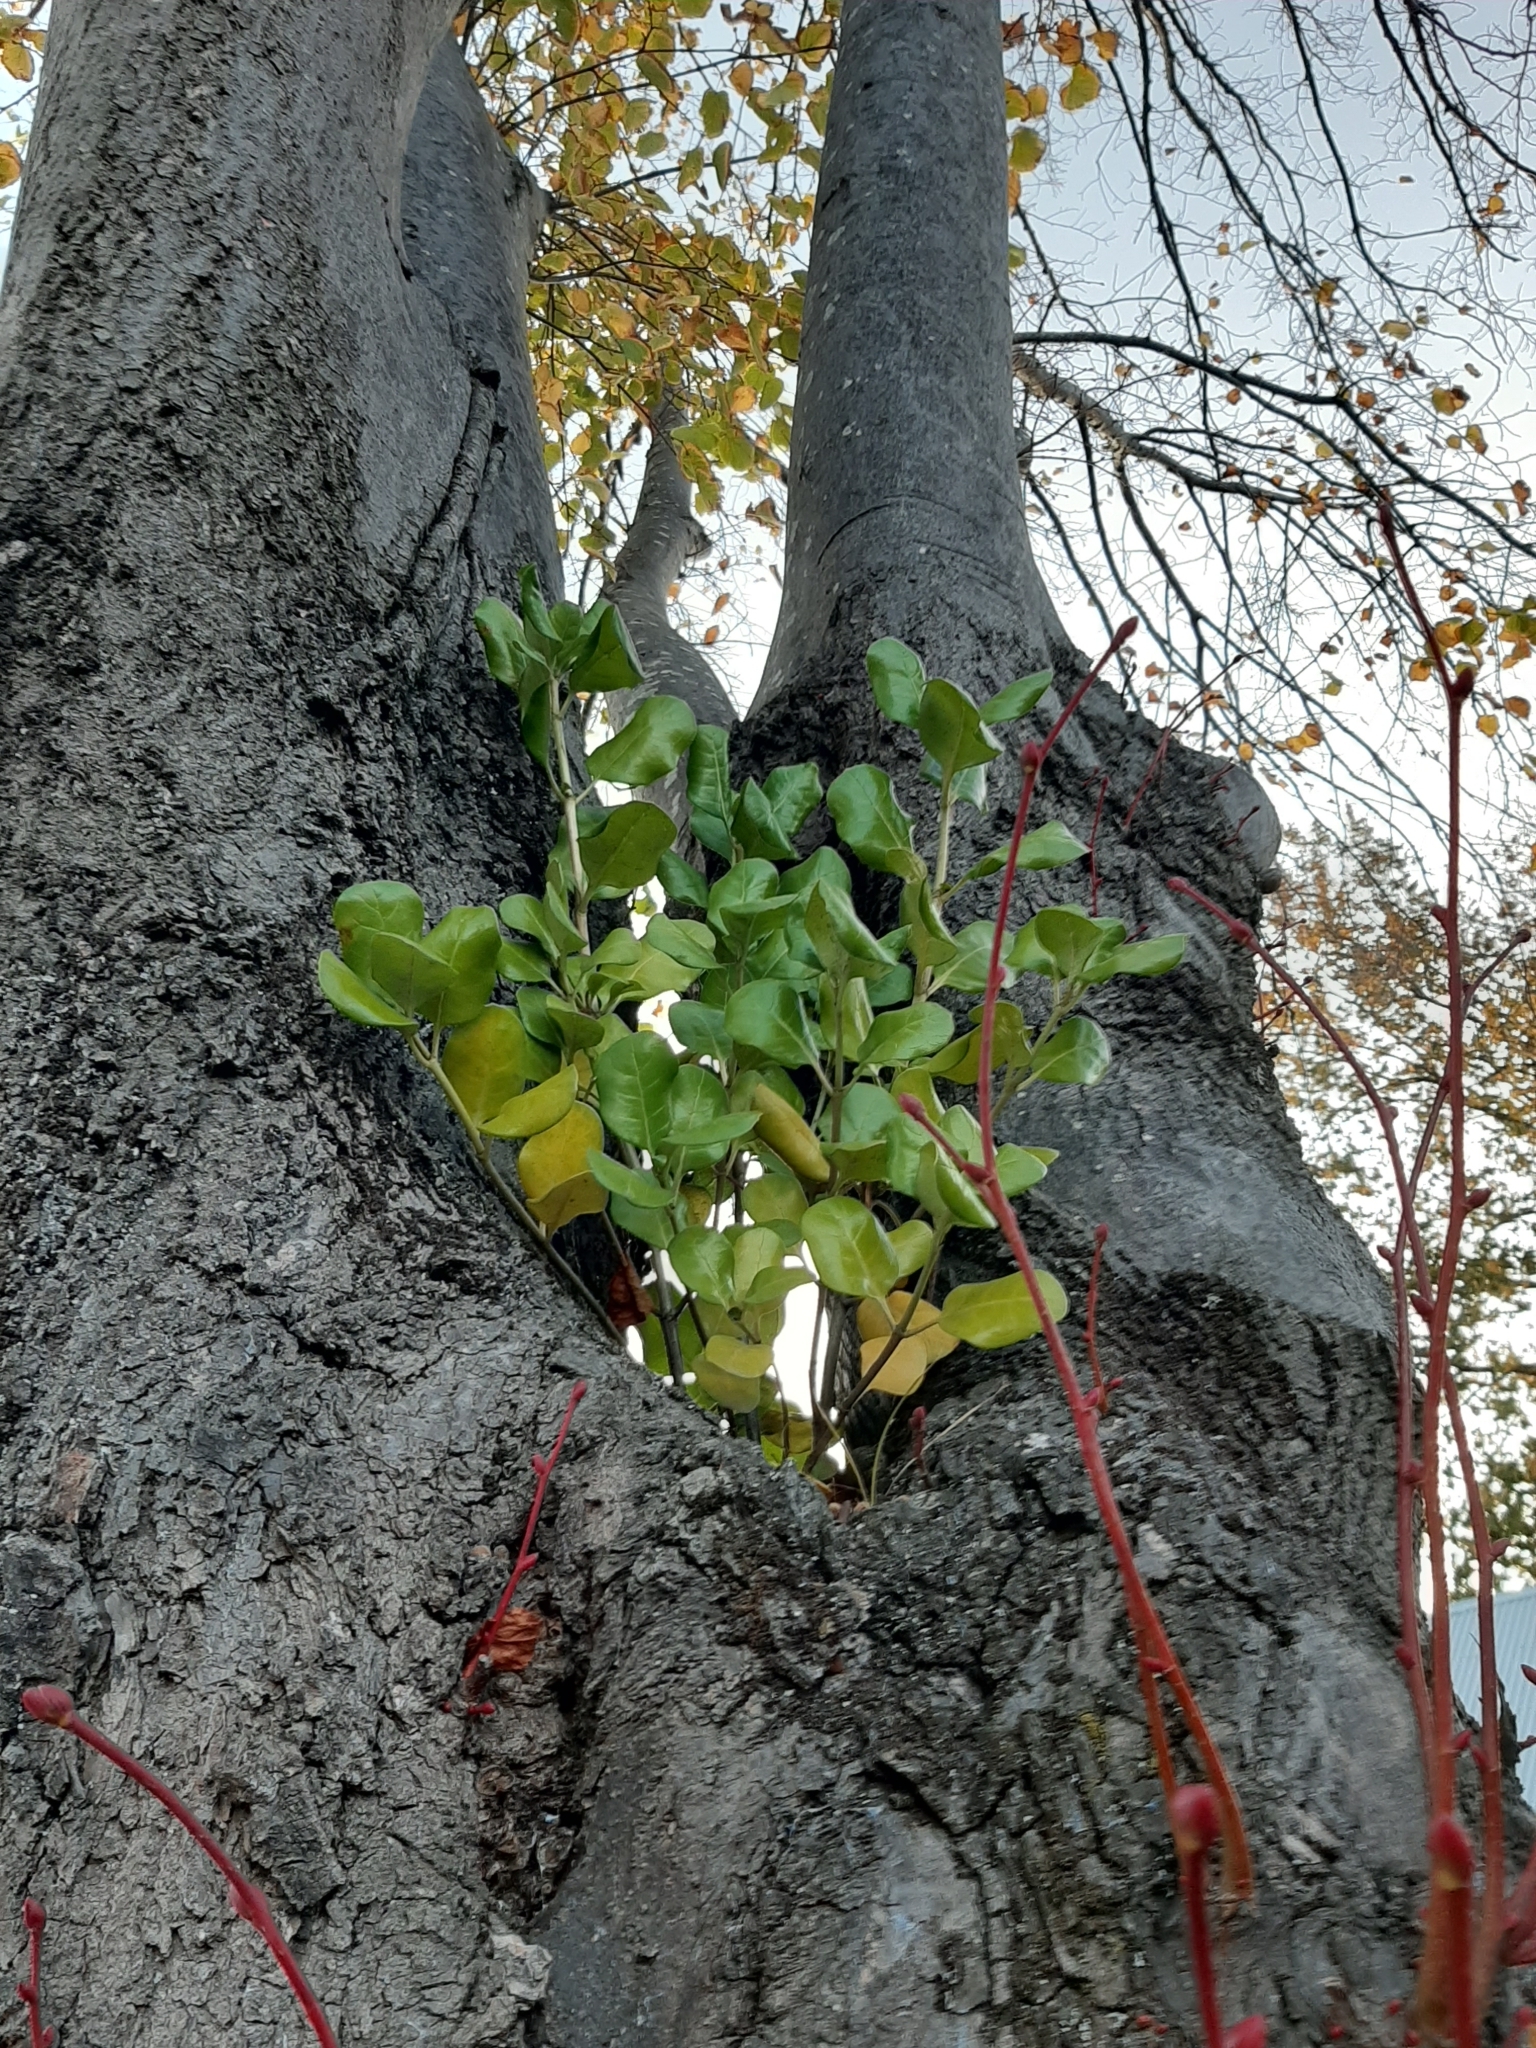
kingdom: Plantae
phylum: Tracheophyta
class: Magnoliopsida
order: Gentianales
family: Rubiaceae
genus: Coprosma
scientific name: Coprosma repens
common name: Tree bedstraw
